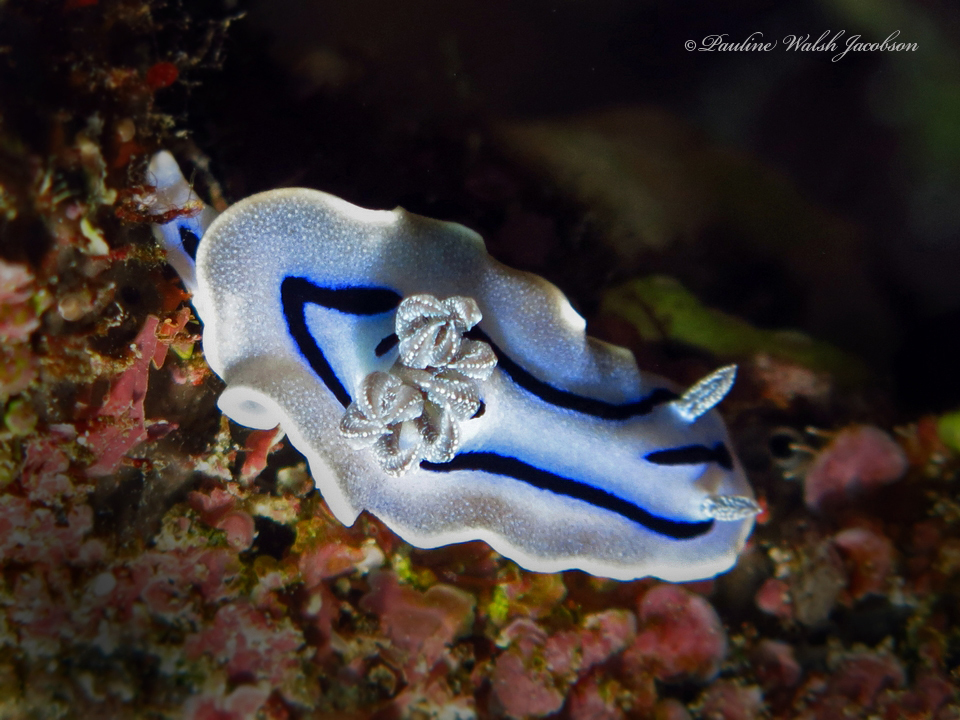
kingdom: Animalia
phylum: Mollusca
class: Gastropoda
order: Nudibranchia
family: Chromodorididae
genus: Chromodoris
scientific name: Chromodoris willani
